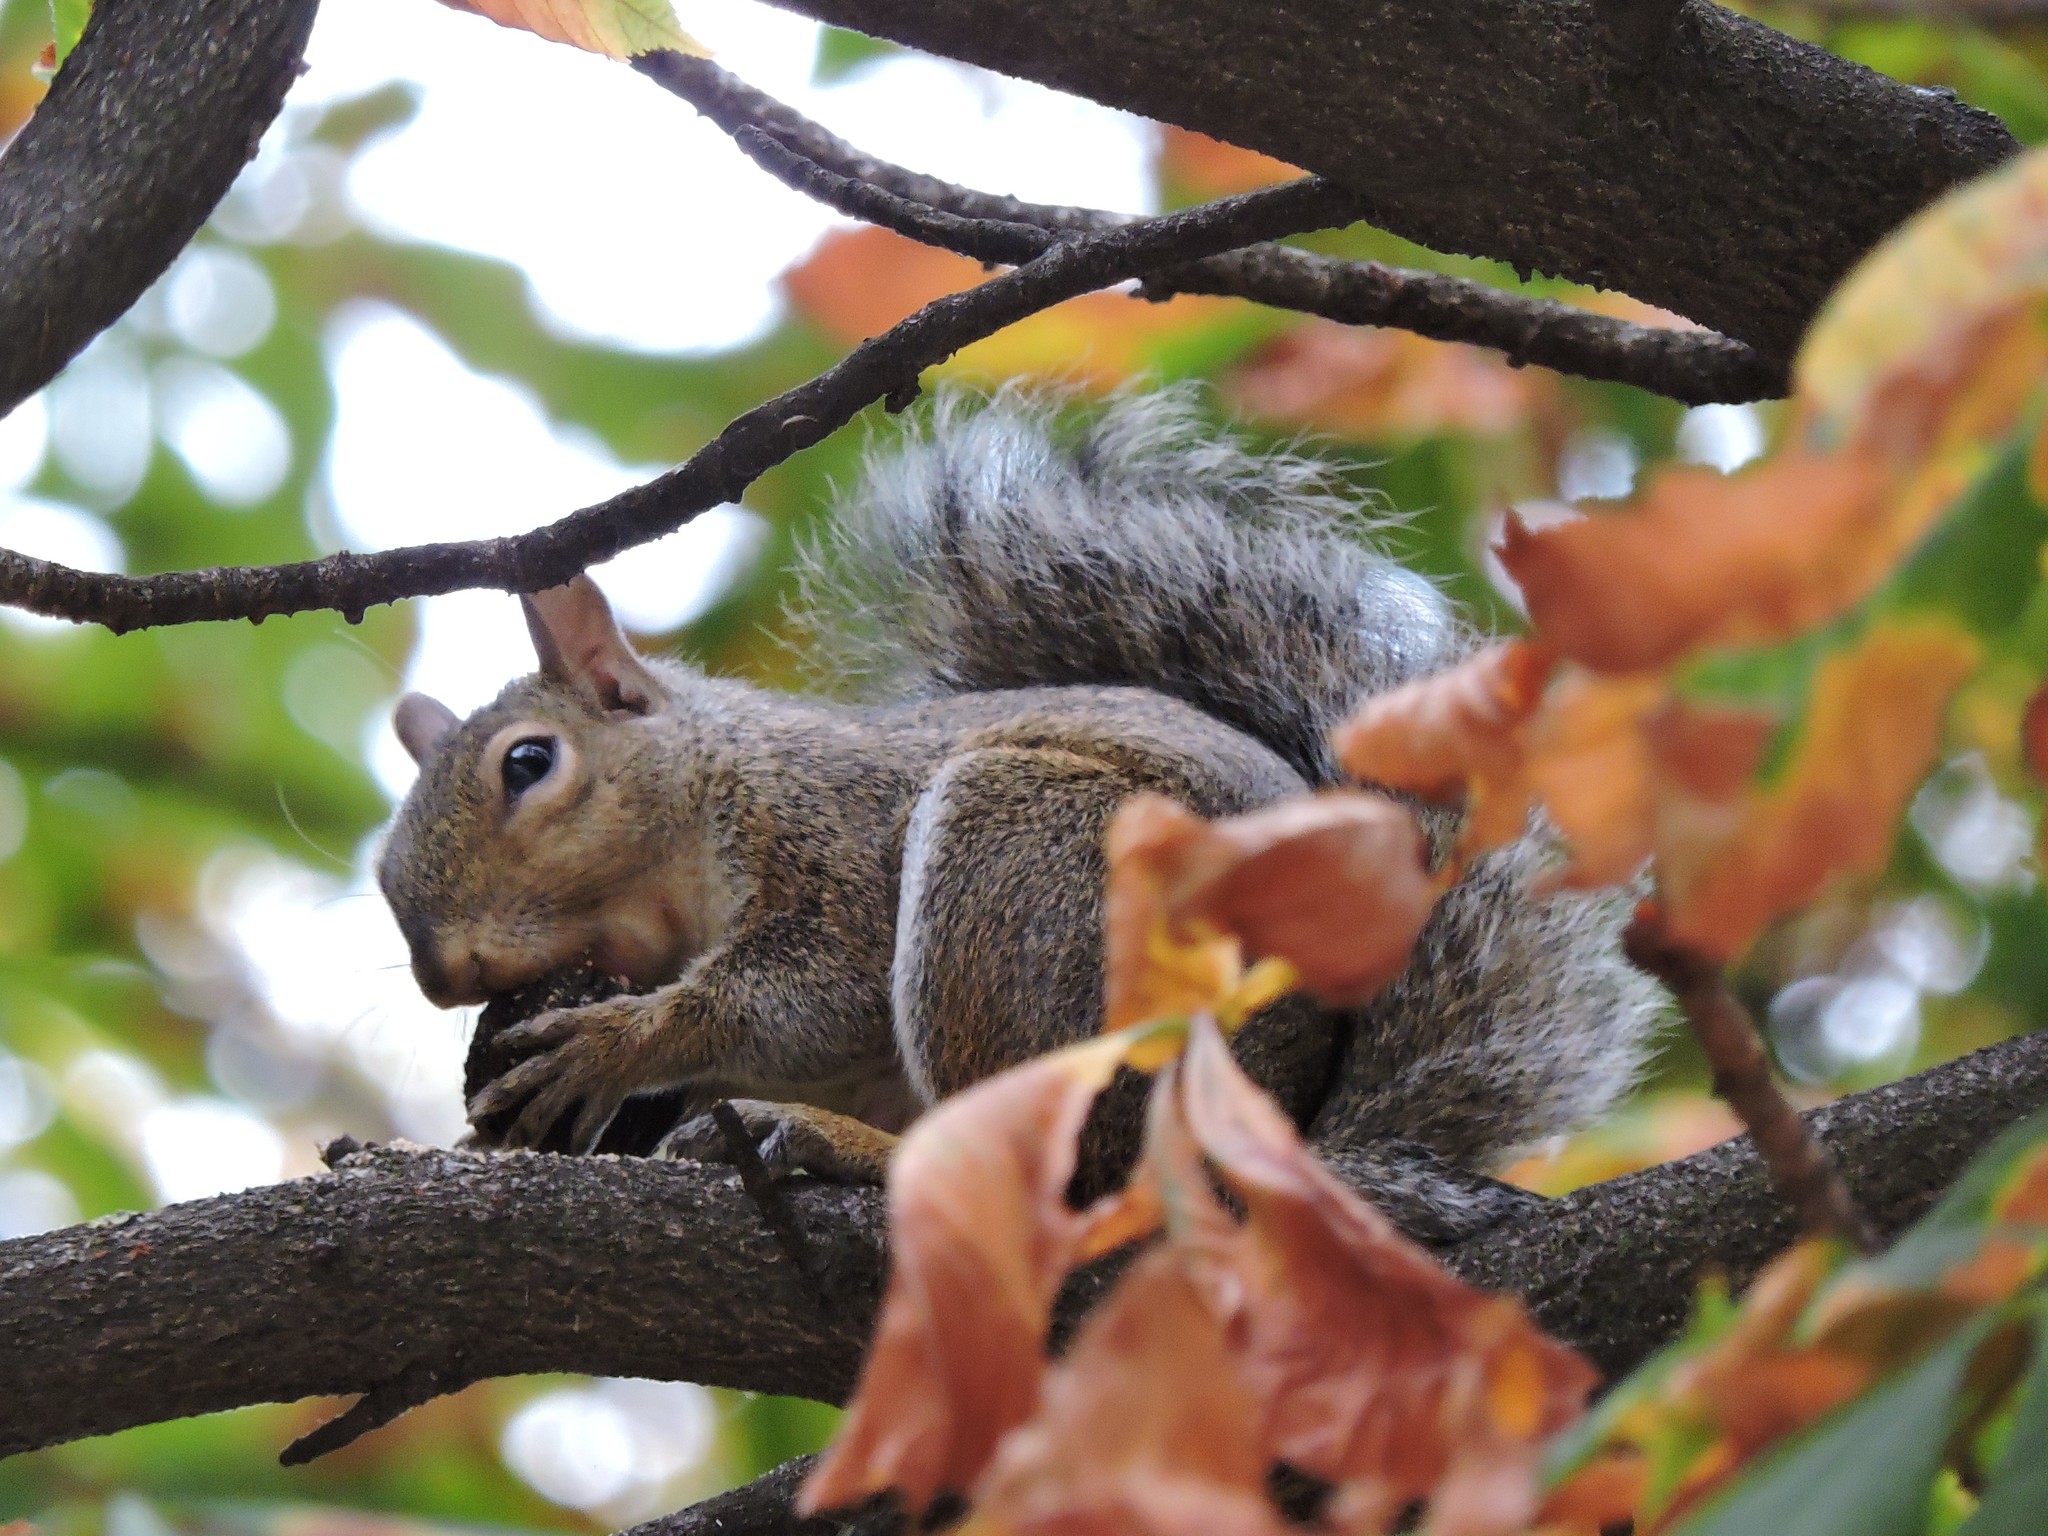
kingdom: Animalia
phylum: Chordata
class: Mammalia
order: Rodentia
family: Sciuridae
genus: Sciurus
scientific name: Sciurus carolinensis
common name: Eastern gray squirrel
